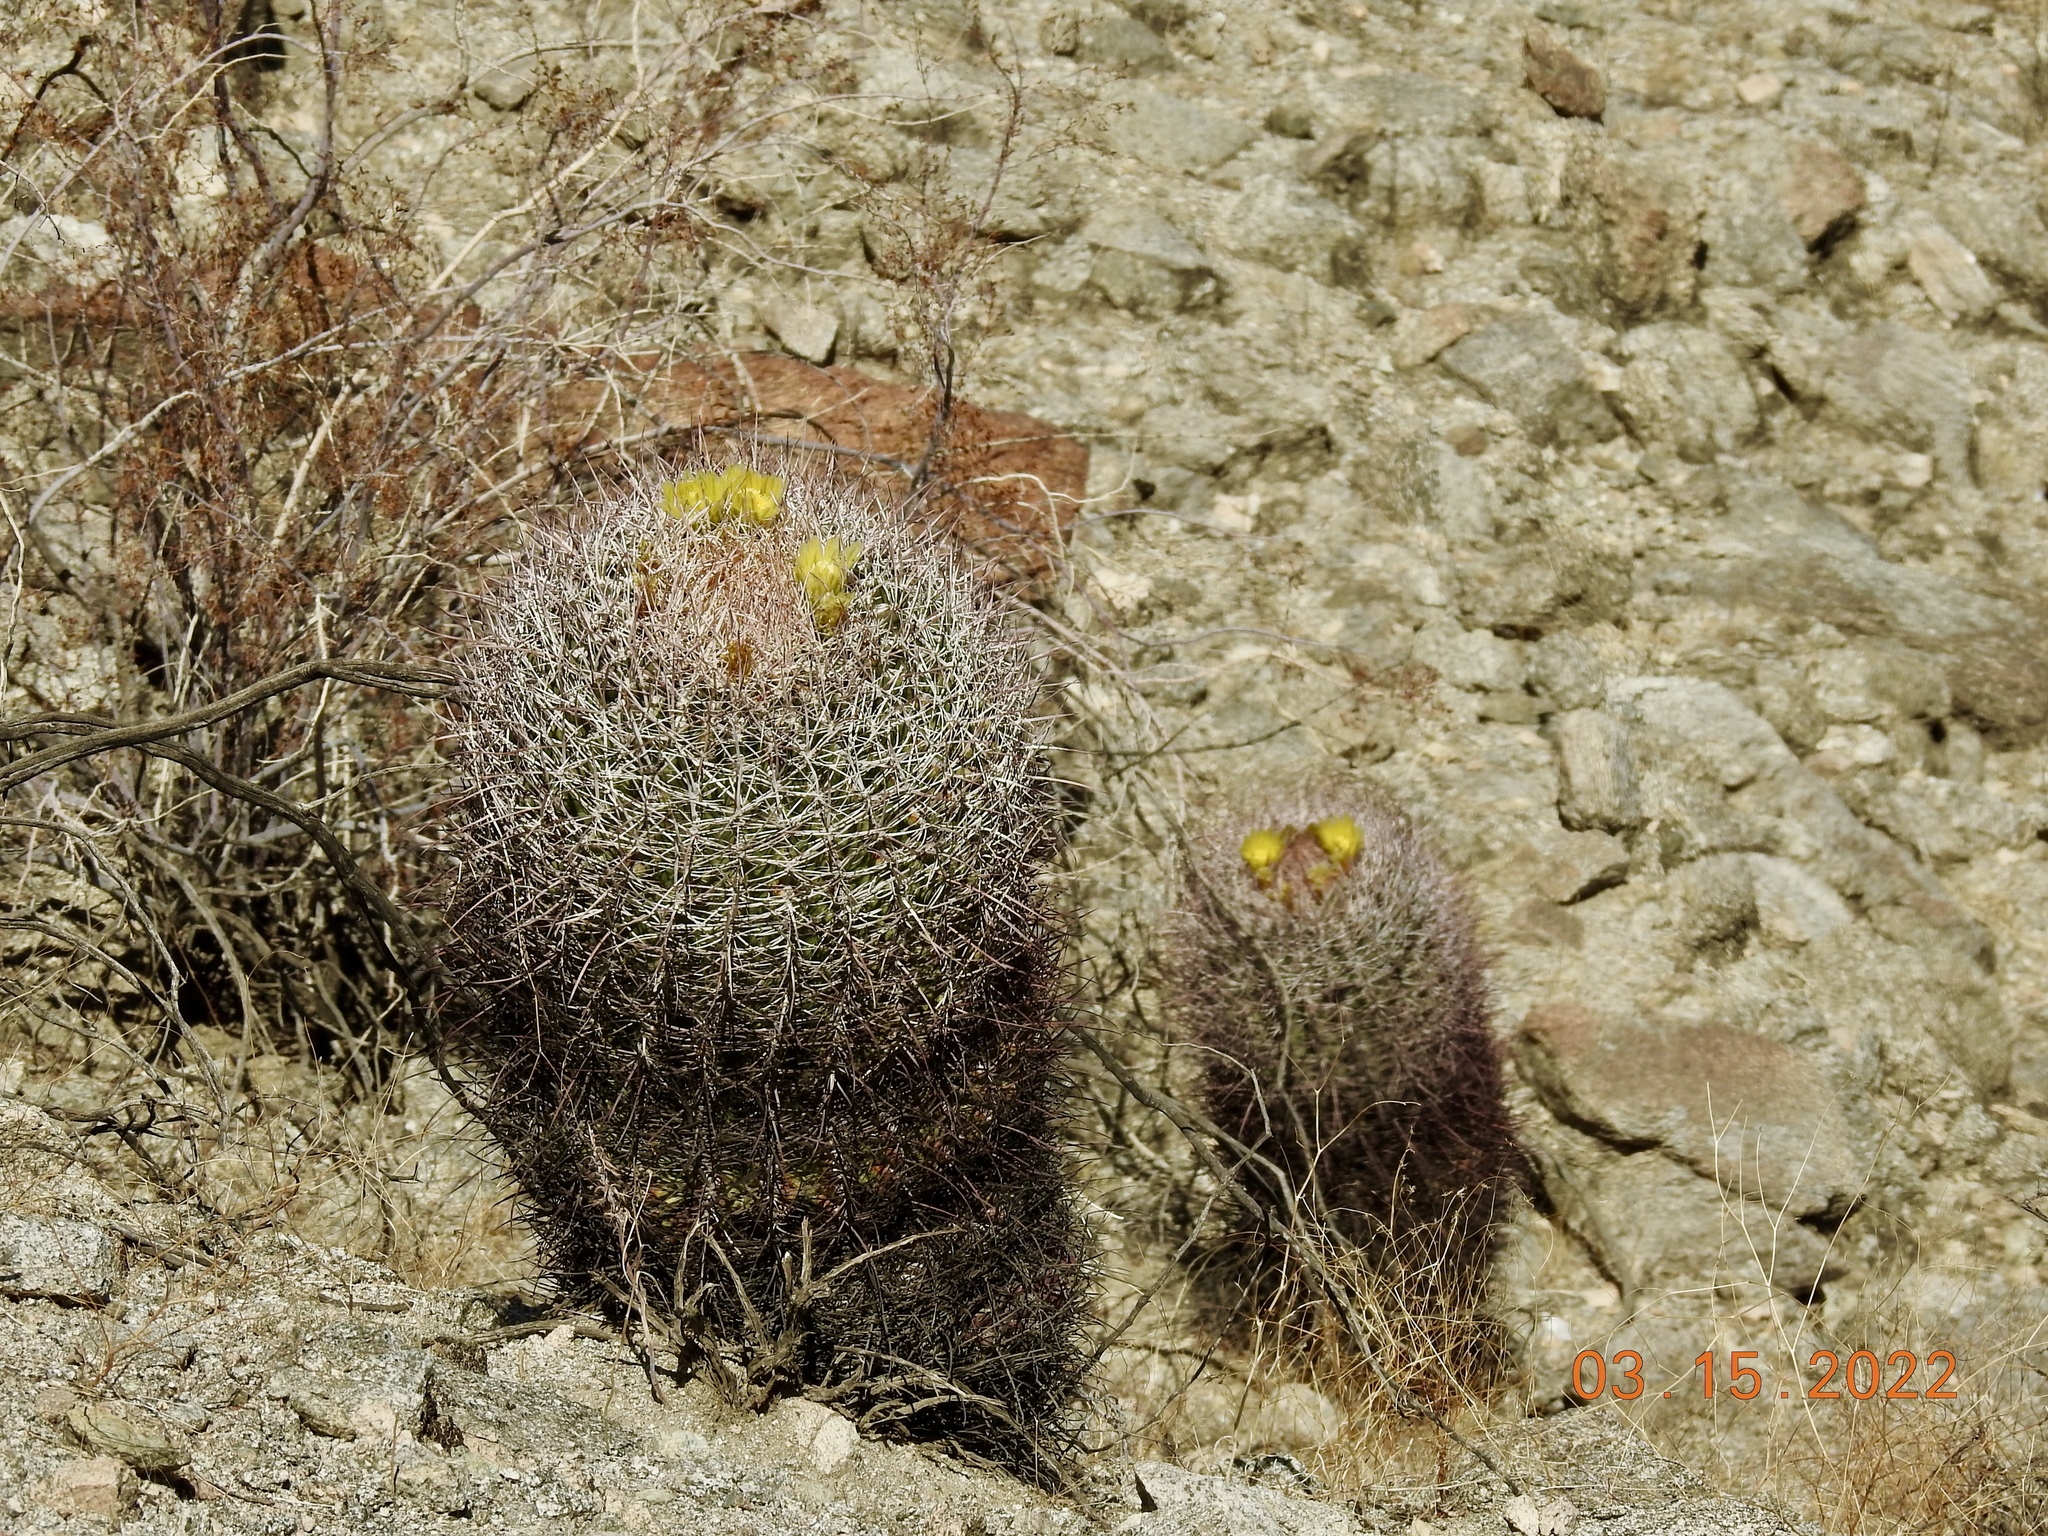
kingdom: Plantae
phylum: Tracheophyta
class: Magnoliopsida
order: Caryophyllales
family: Cactaceae
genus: Ferocactus
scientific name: Ferocactus cylindraceus
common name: California barrel cactus
